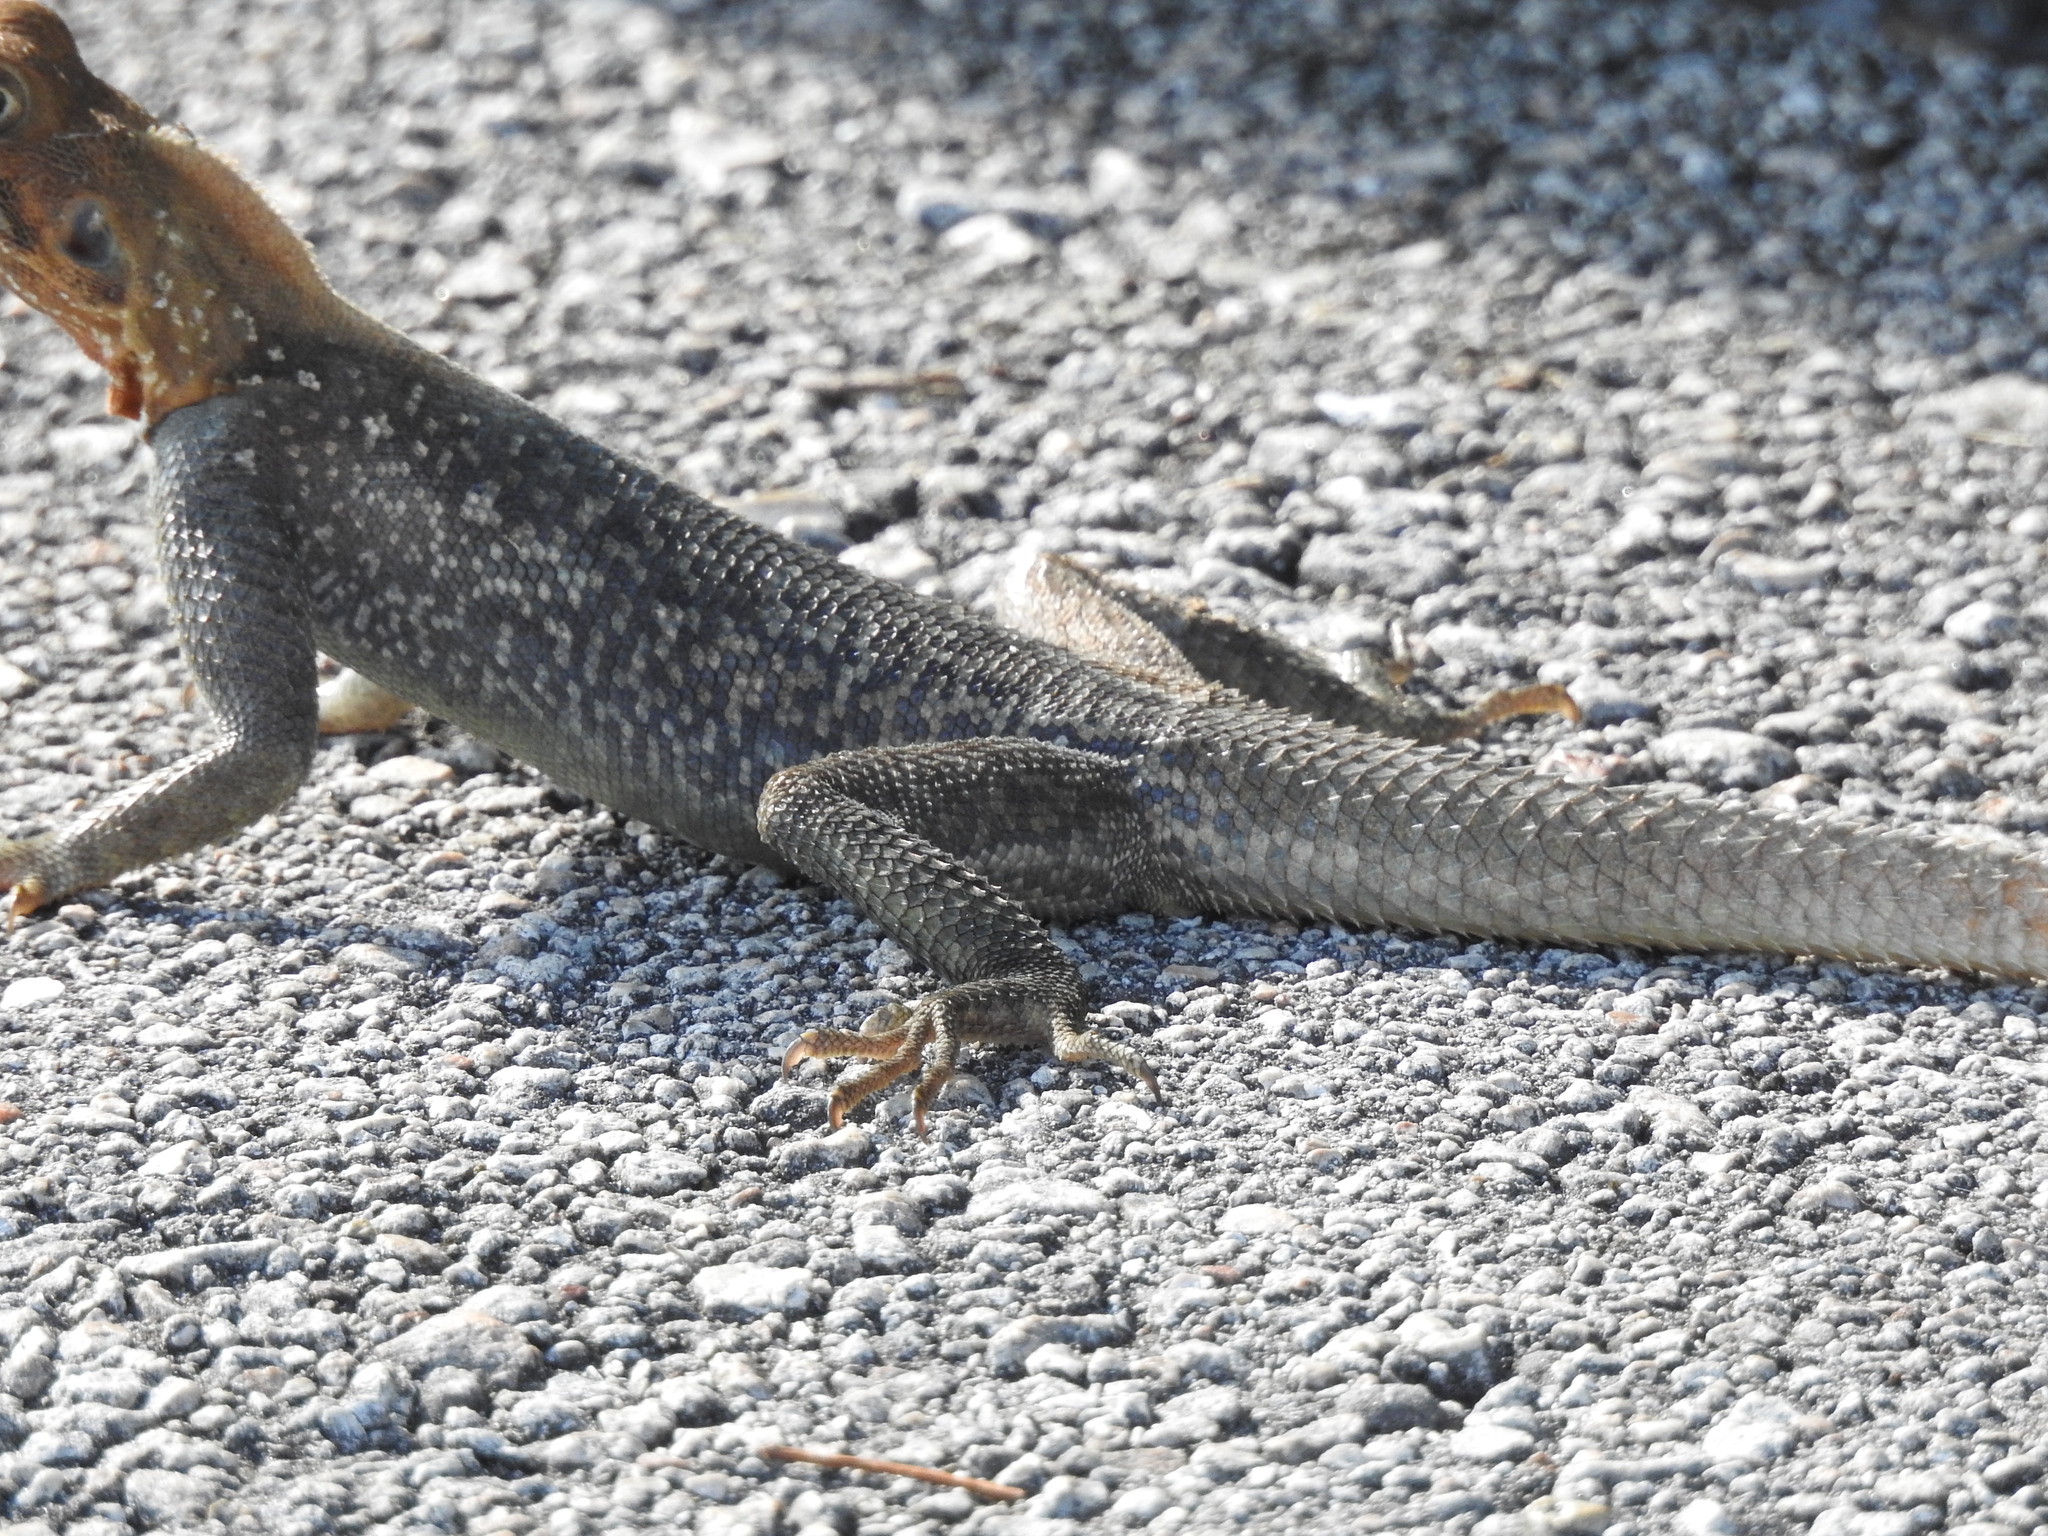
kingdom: Animalia
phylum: Chordata
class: Squamata
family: Agamidae
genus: Agama
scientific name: Agama picticauda
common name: Red-headed agama
